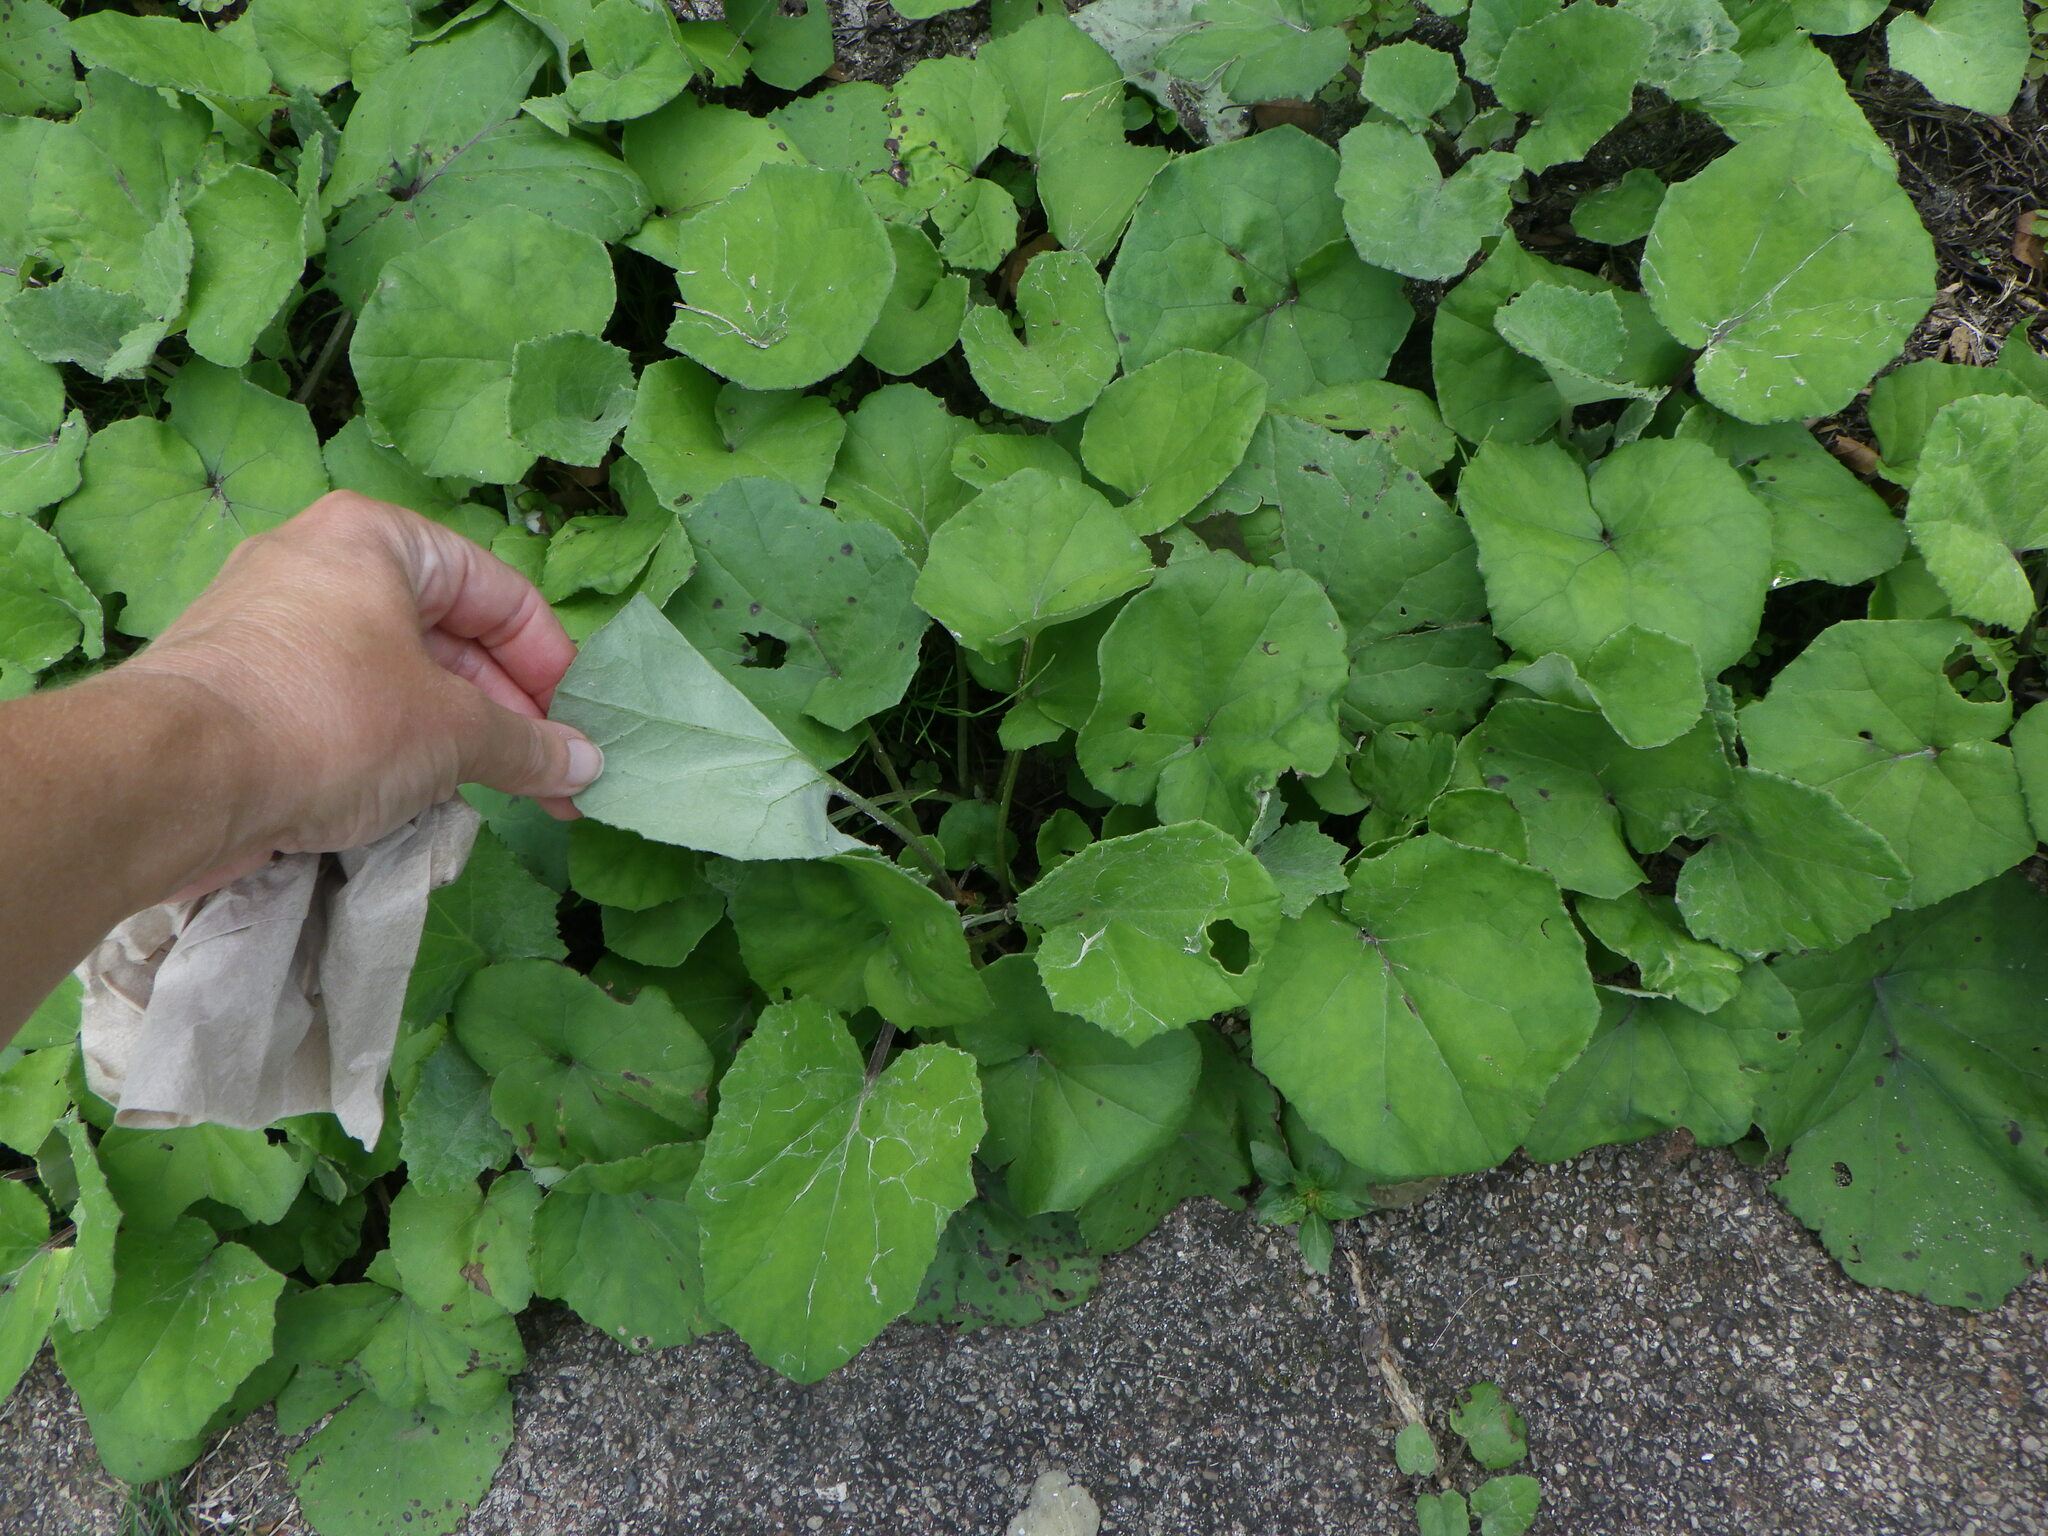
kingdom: Plantae
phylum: Tracheophyta
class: Magnoliopsida
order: Asterales
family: Asteraceae
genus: Tussilago
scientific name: Tussilago farfara
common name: Coltsfoot
